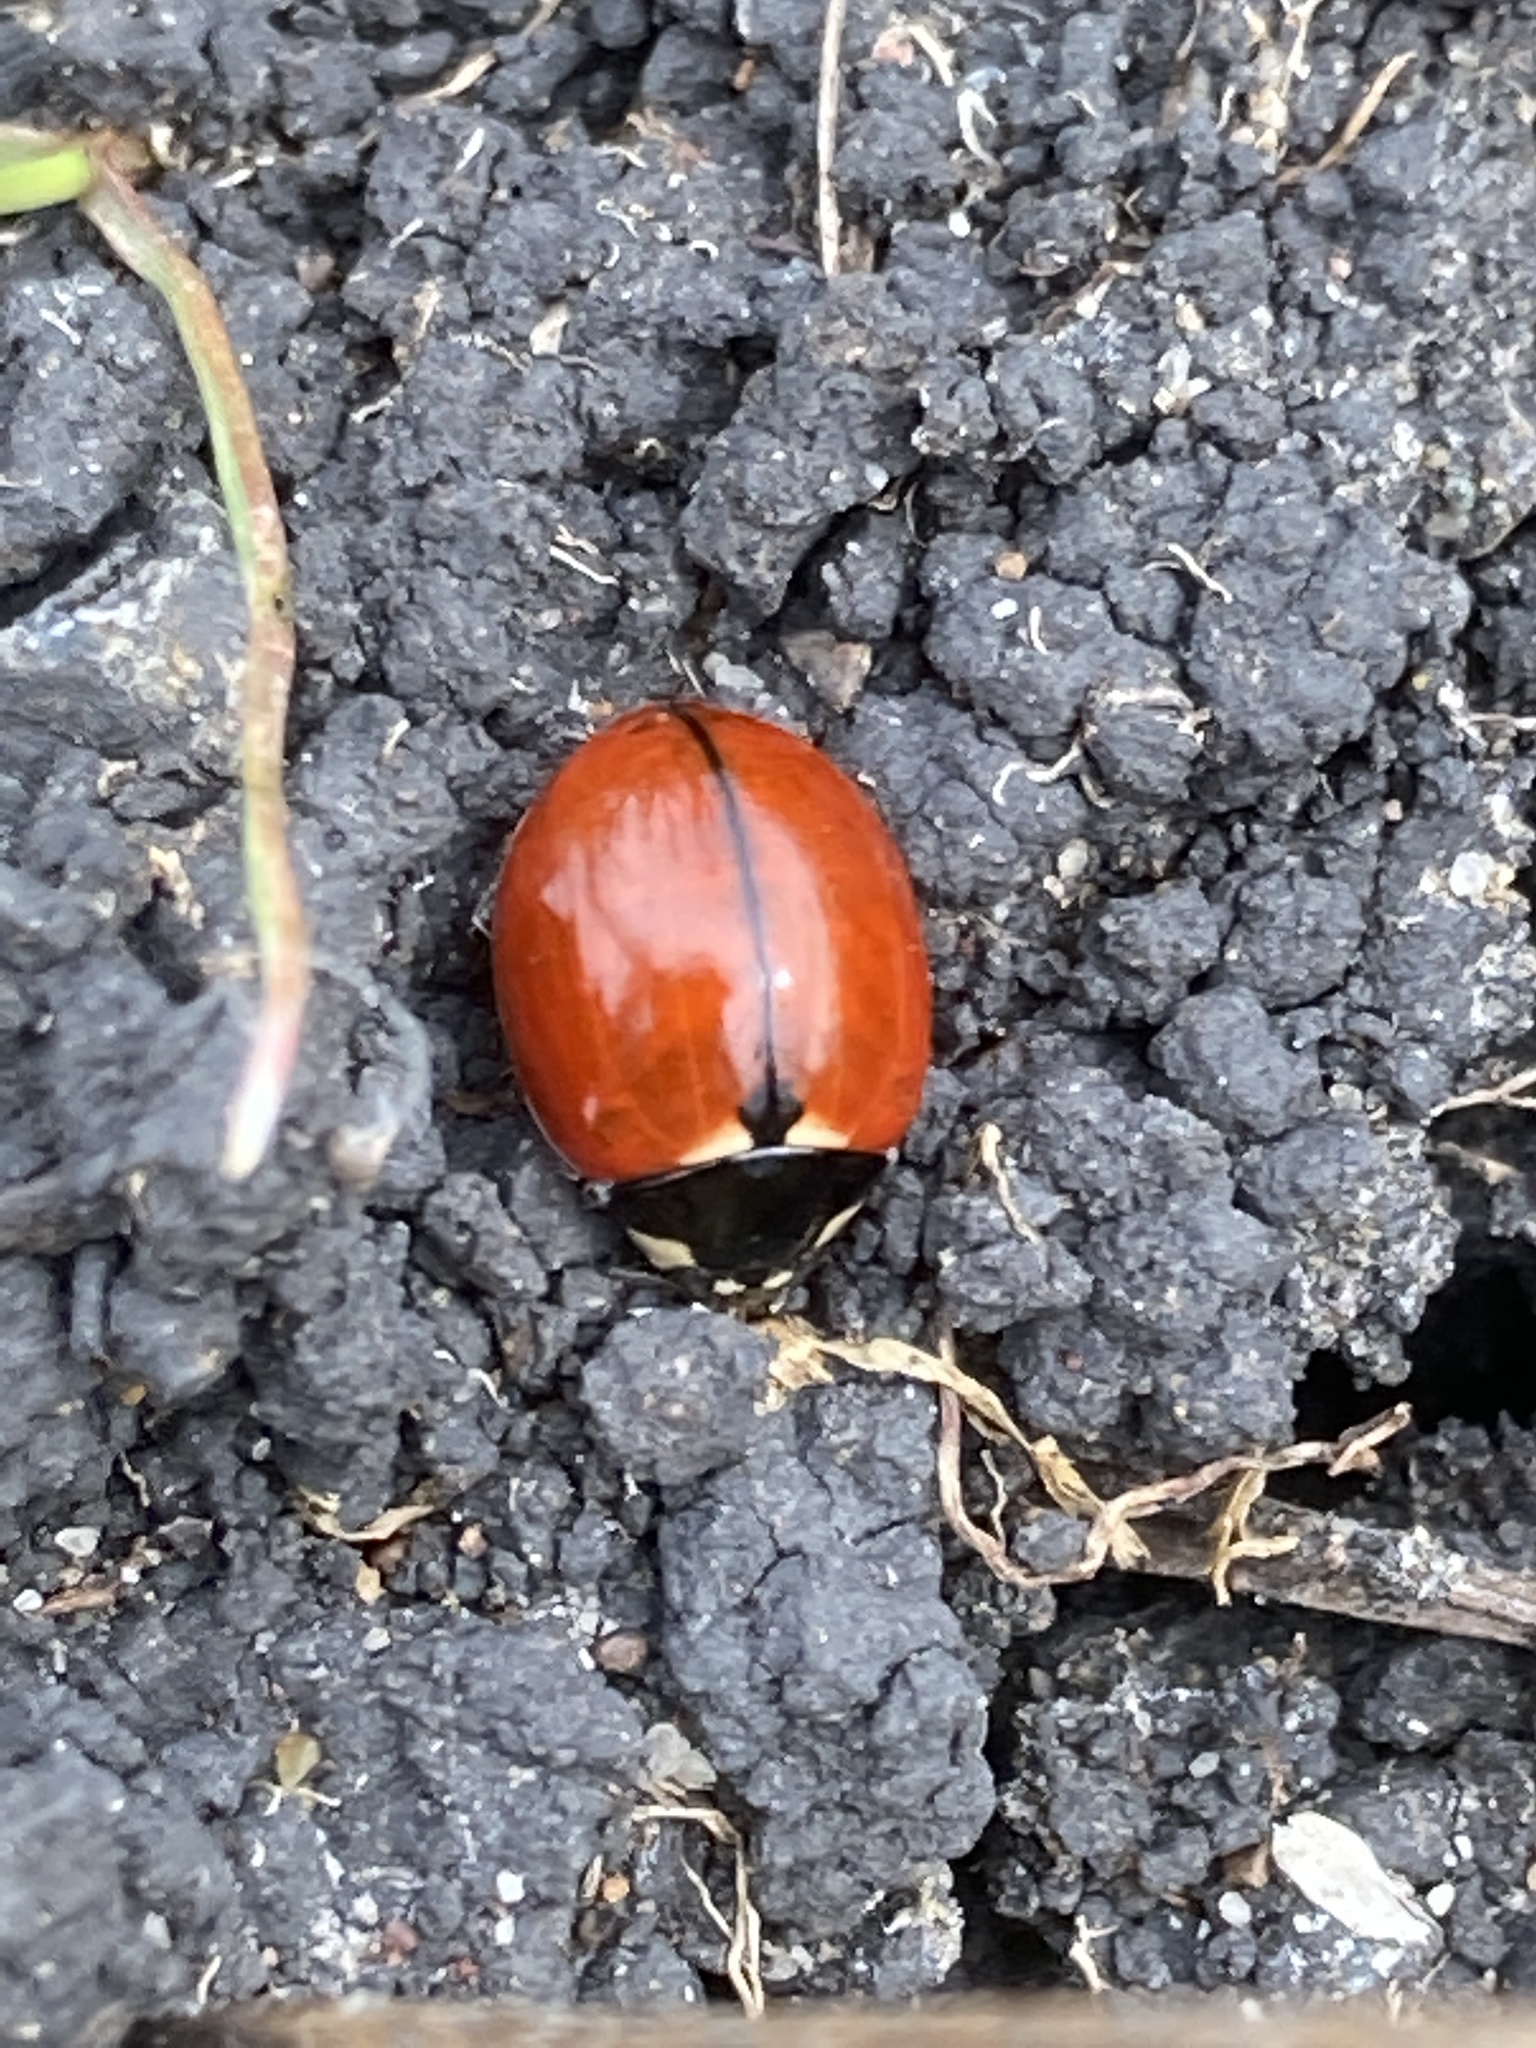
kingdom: Animalia
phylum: Arthropoda
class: Insecta
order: Coleoptera
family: Coccinellidae
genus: Coccinella
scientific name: Coccinella californica
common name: Lady beetle
